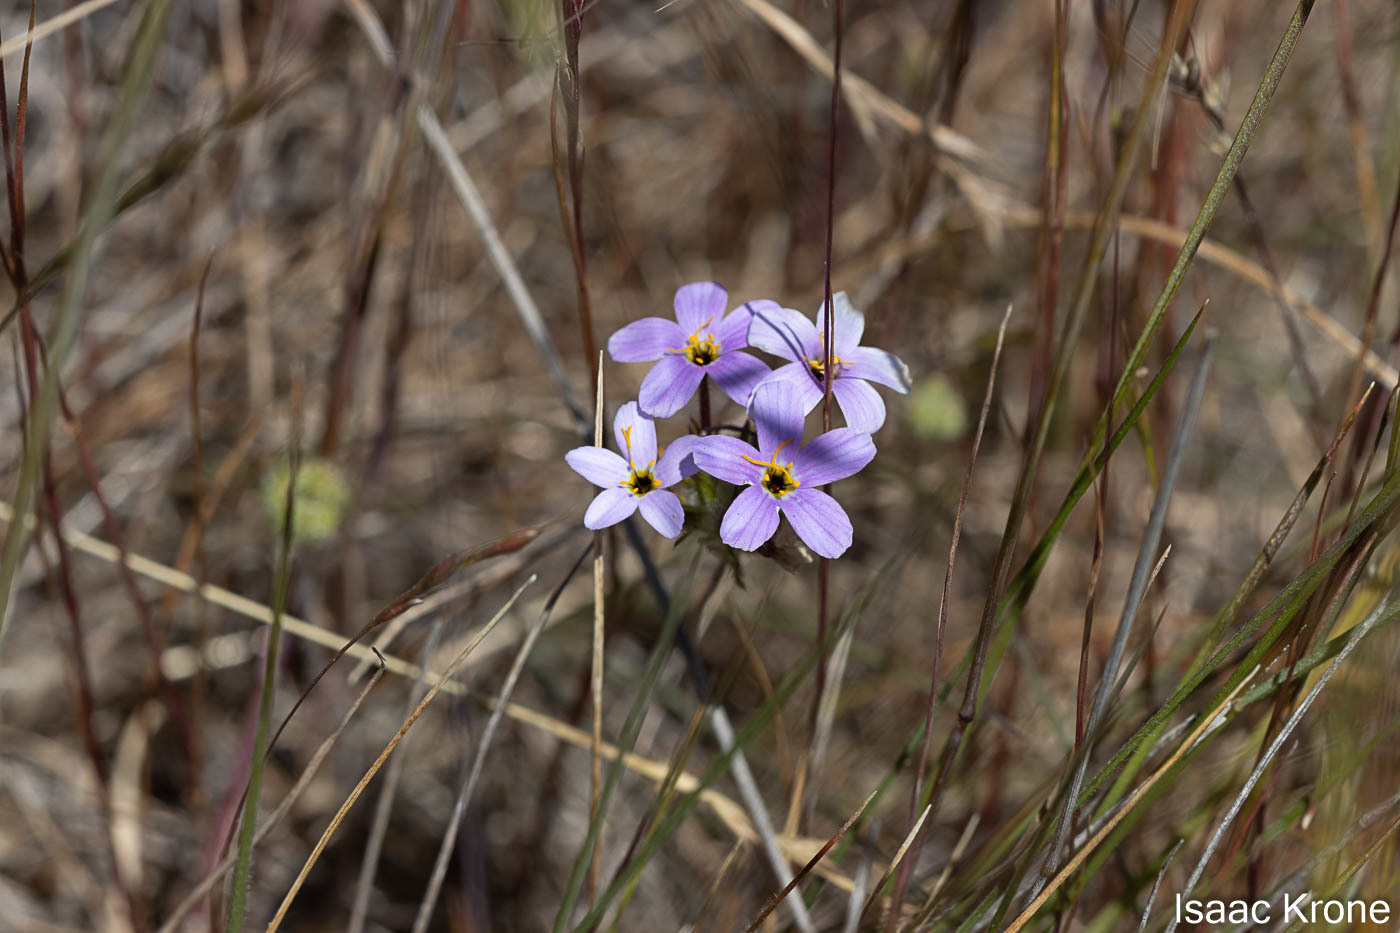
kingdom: Plantae
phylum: Tracheophyta
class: Magnoliopsida
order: Ericales
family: Polemoniaceae
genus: Leptosiphon
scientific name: Leptosiphon androsaceus
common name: False babystars
